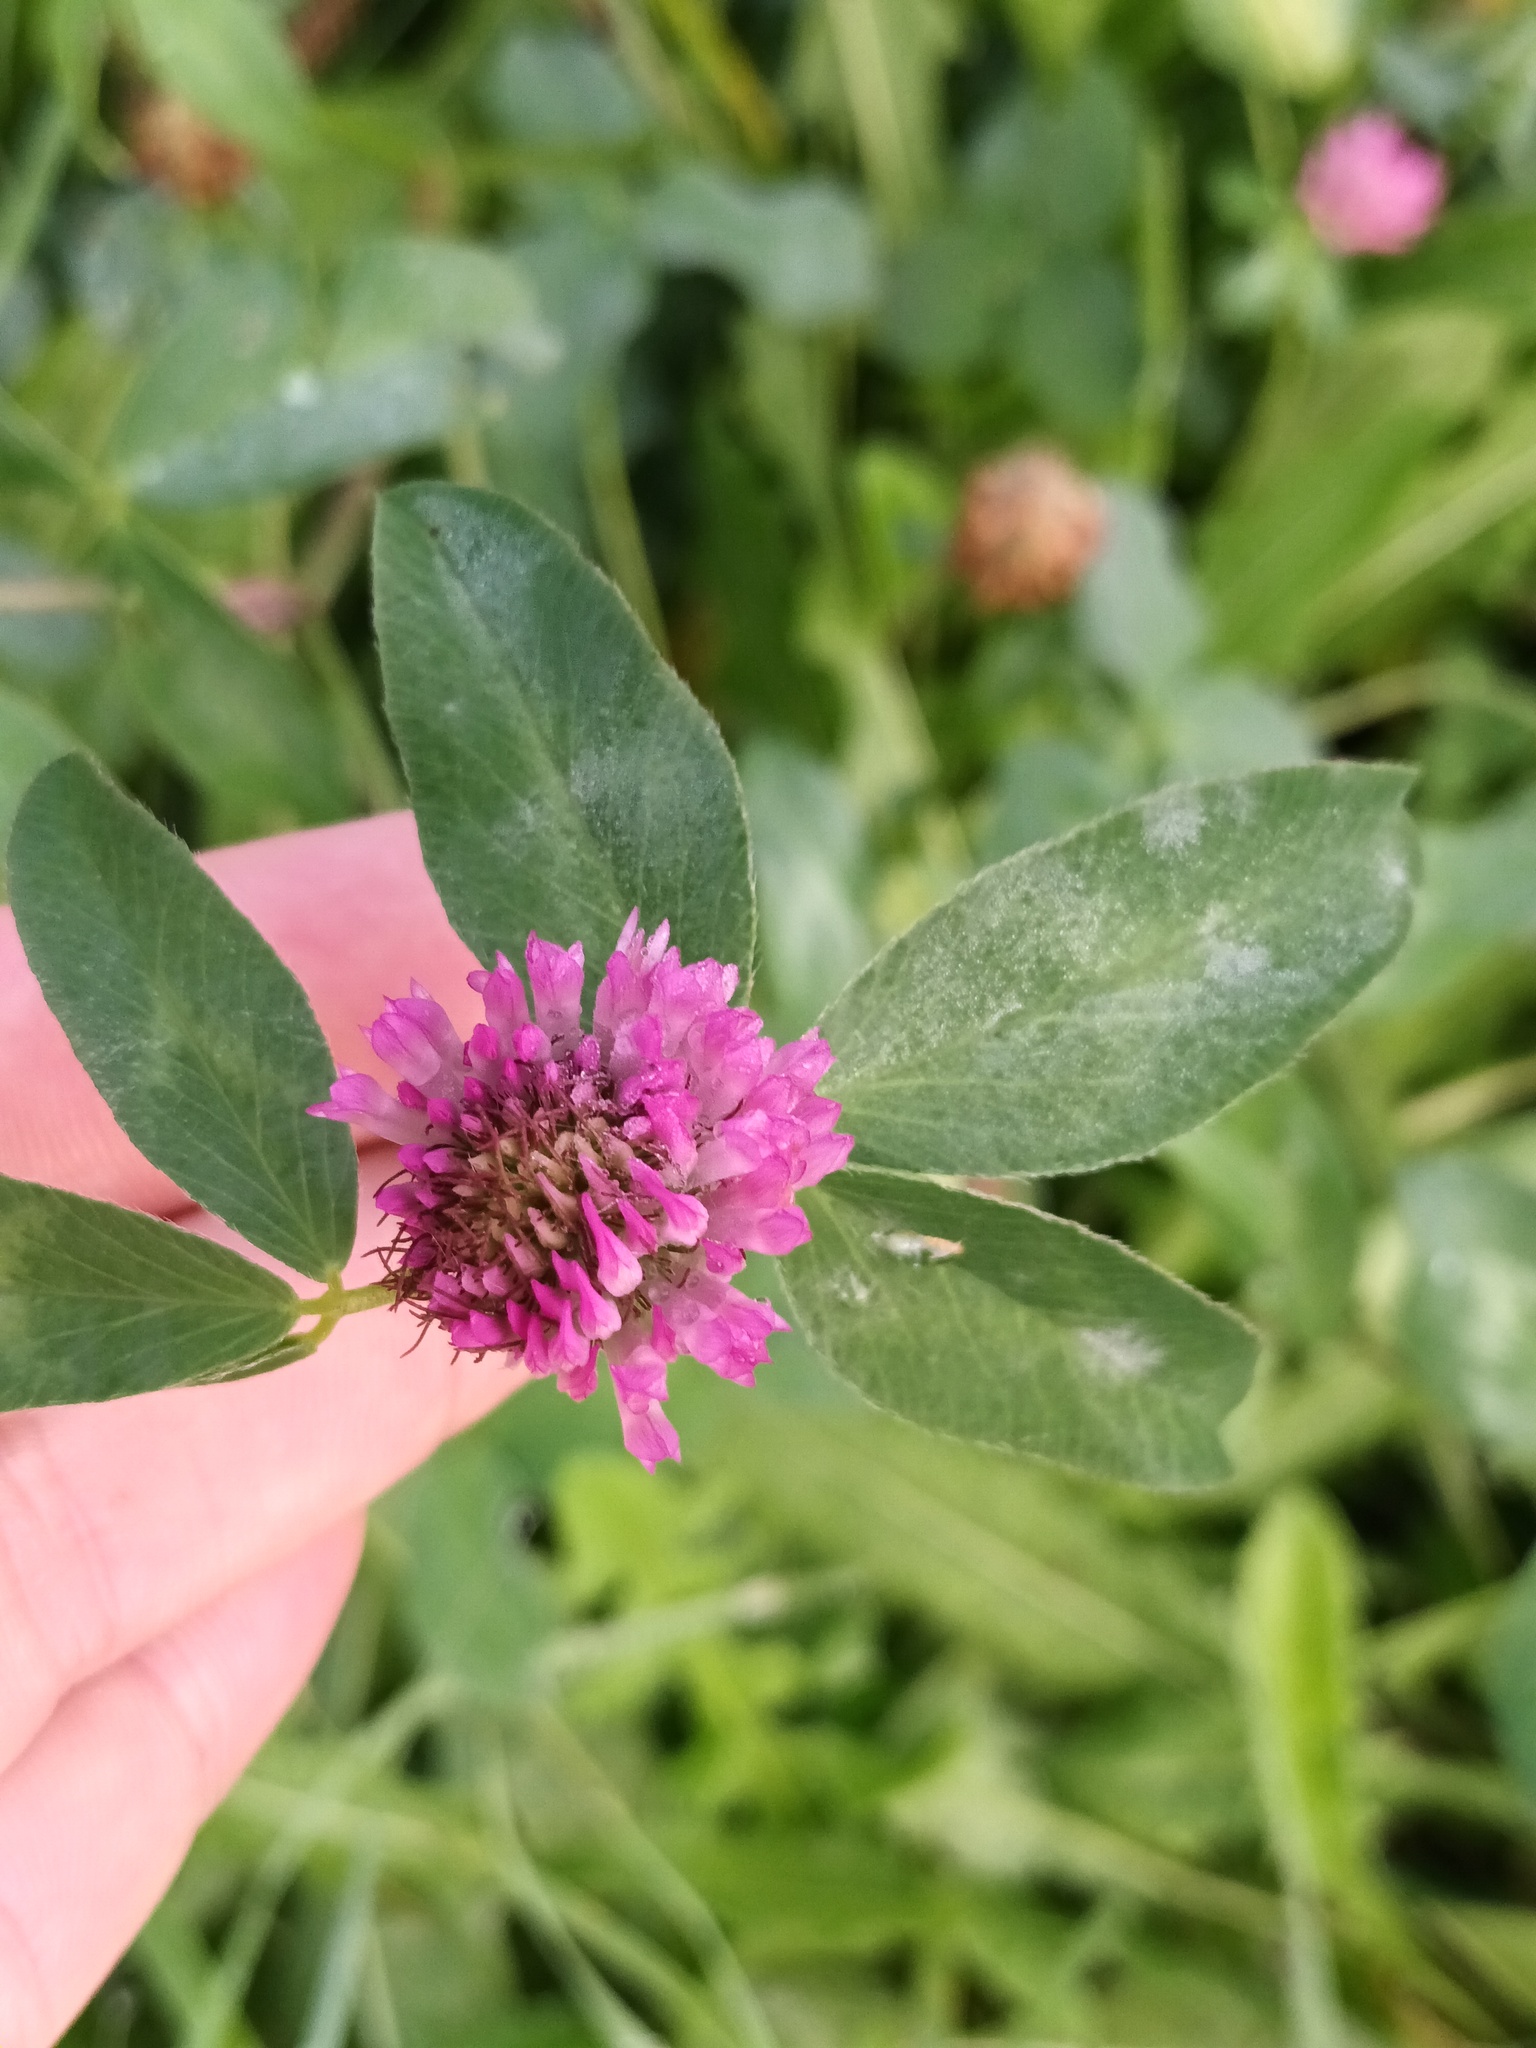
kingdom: Plantae
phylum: Tracheophyta
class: Magnoliopsida
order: Fabales
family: Fabaceae
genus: Trifolium
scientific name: Trifolium pratense
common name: Red clover
